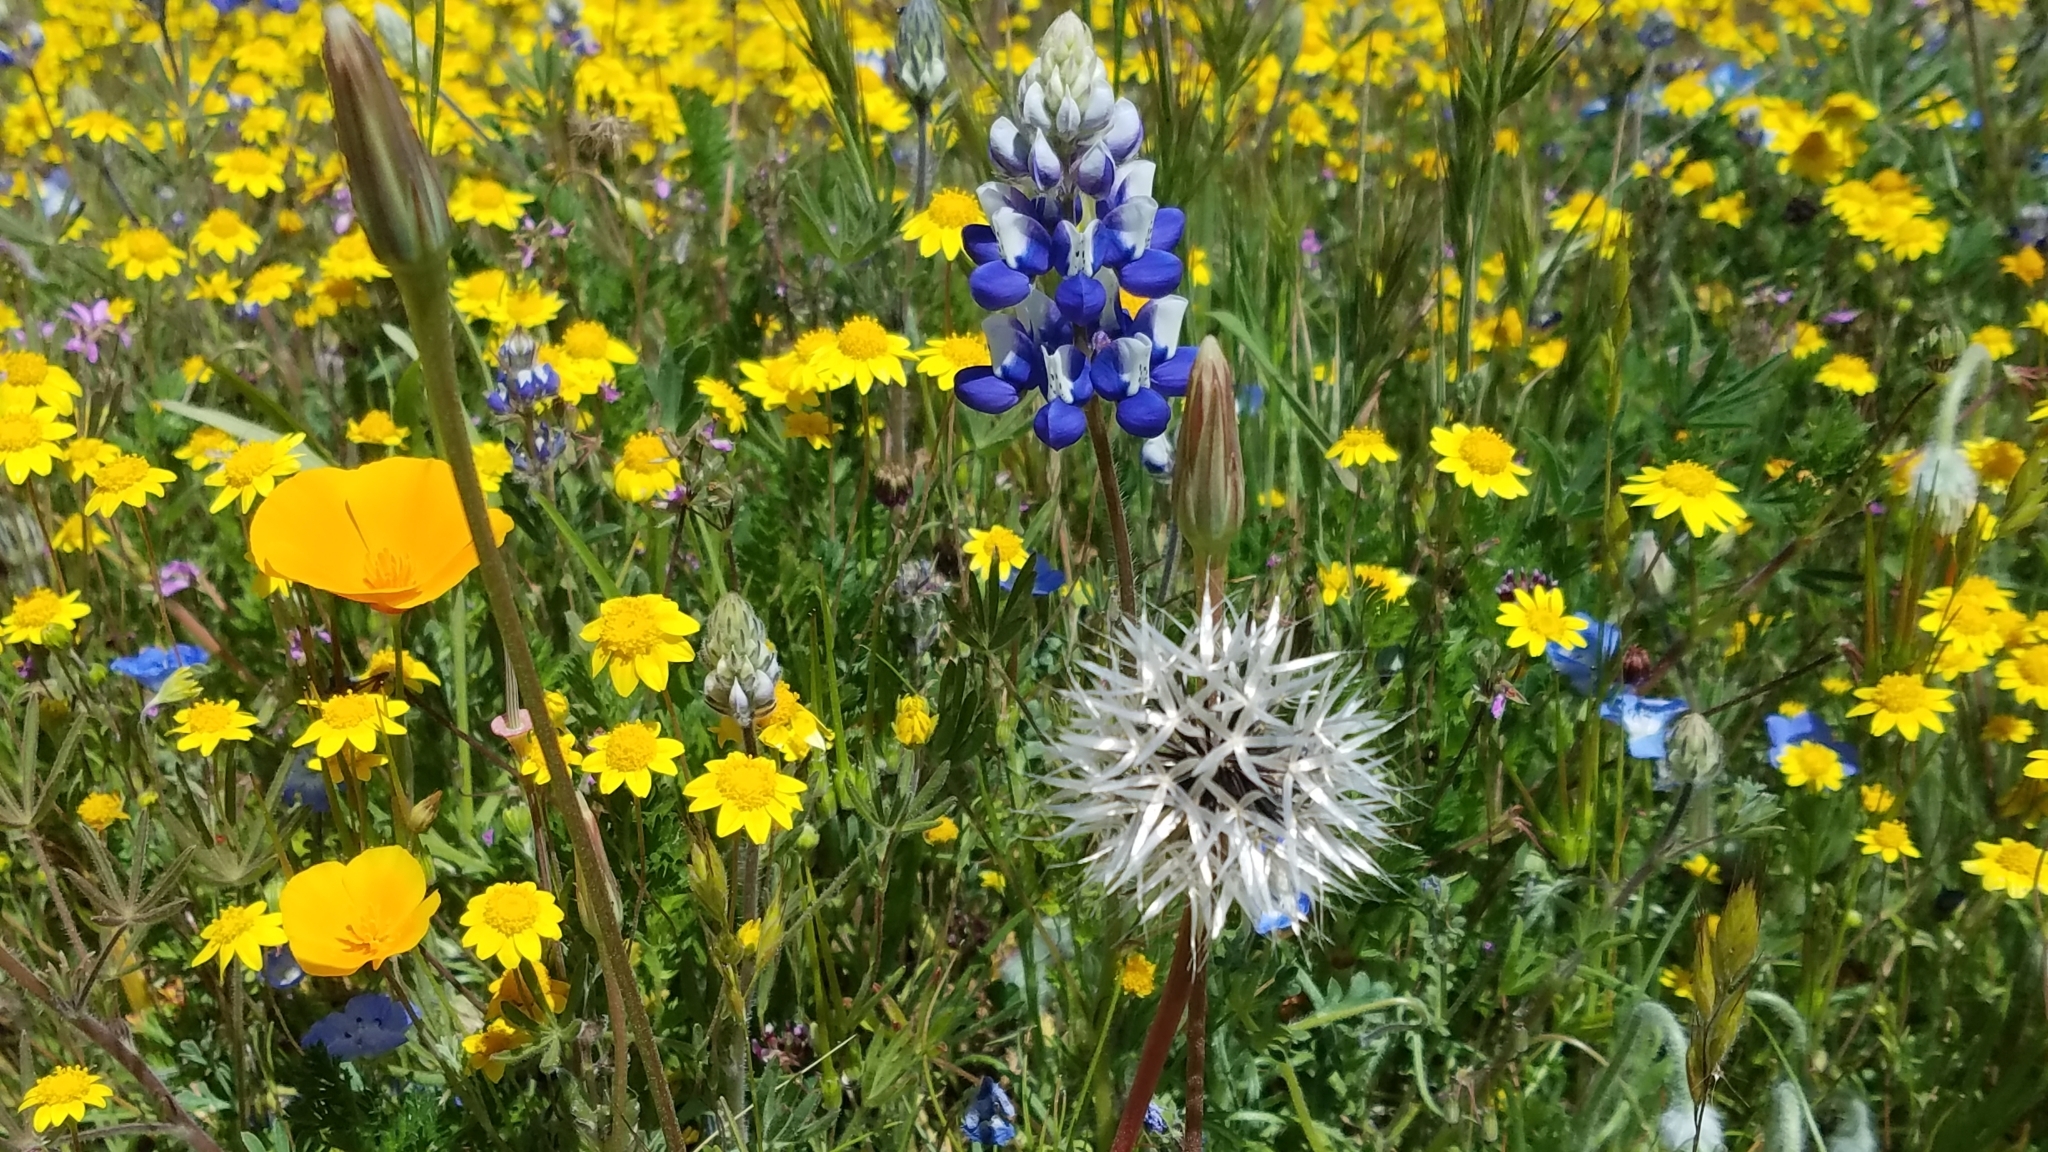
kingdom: Plantae
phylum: Tracheophyta
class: Magnoliopsida
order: Asterales
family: Asteraceae
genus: Microseris
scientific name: Microseris lindleyi
